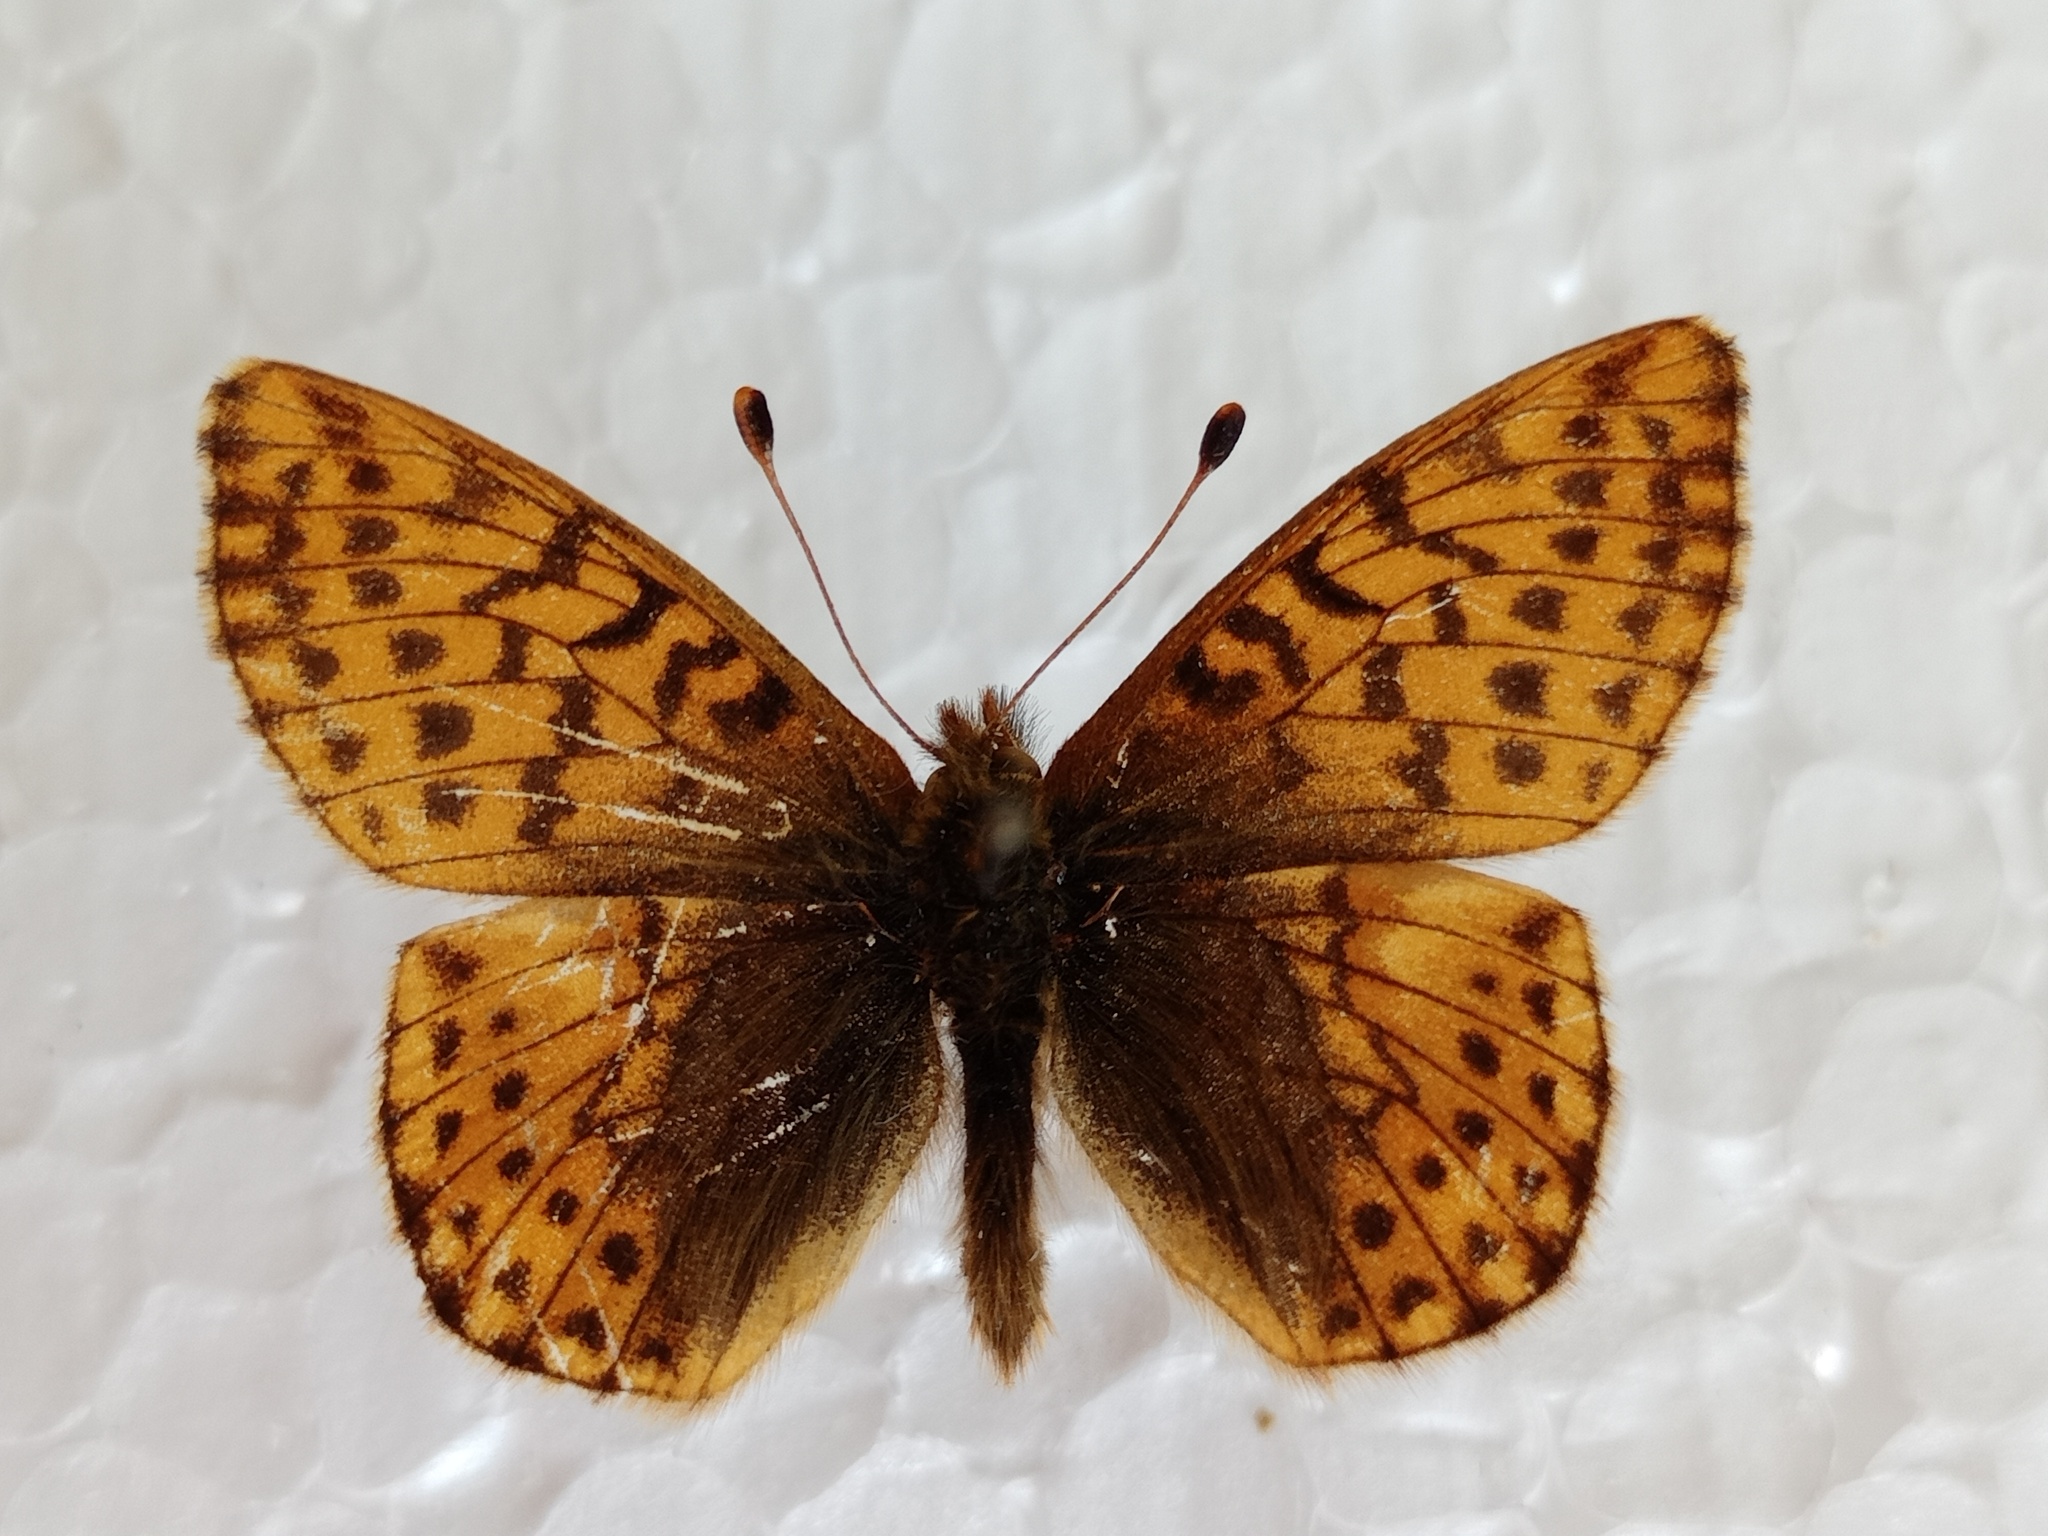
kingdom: Animalia
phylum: Arthropoda
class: Insecta
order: Lepidoptera
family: Nymphalidae
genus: Boloria
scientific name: Boloria pales
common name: Shepherd's fritillary
